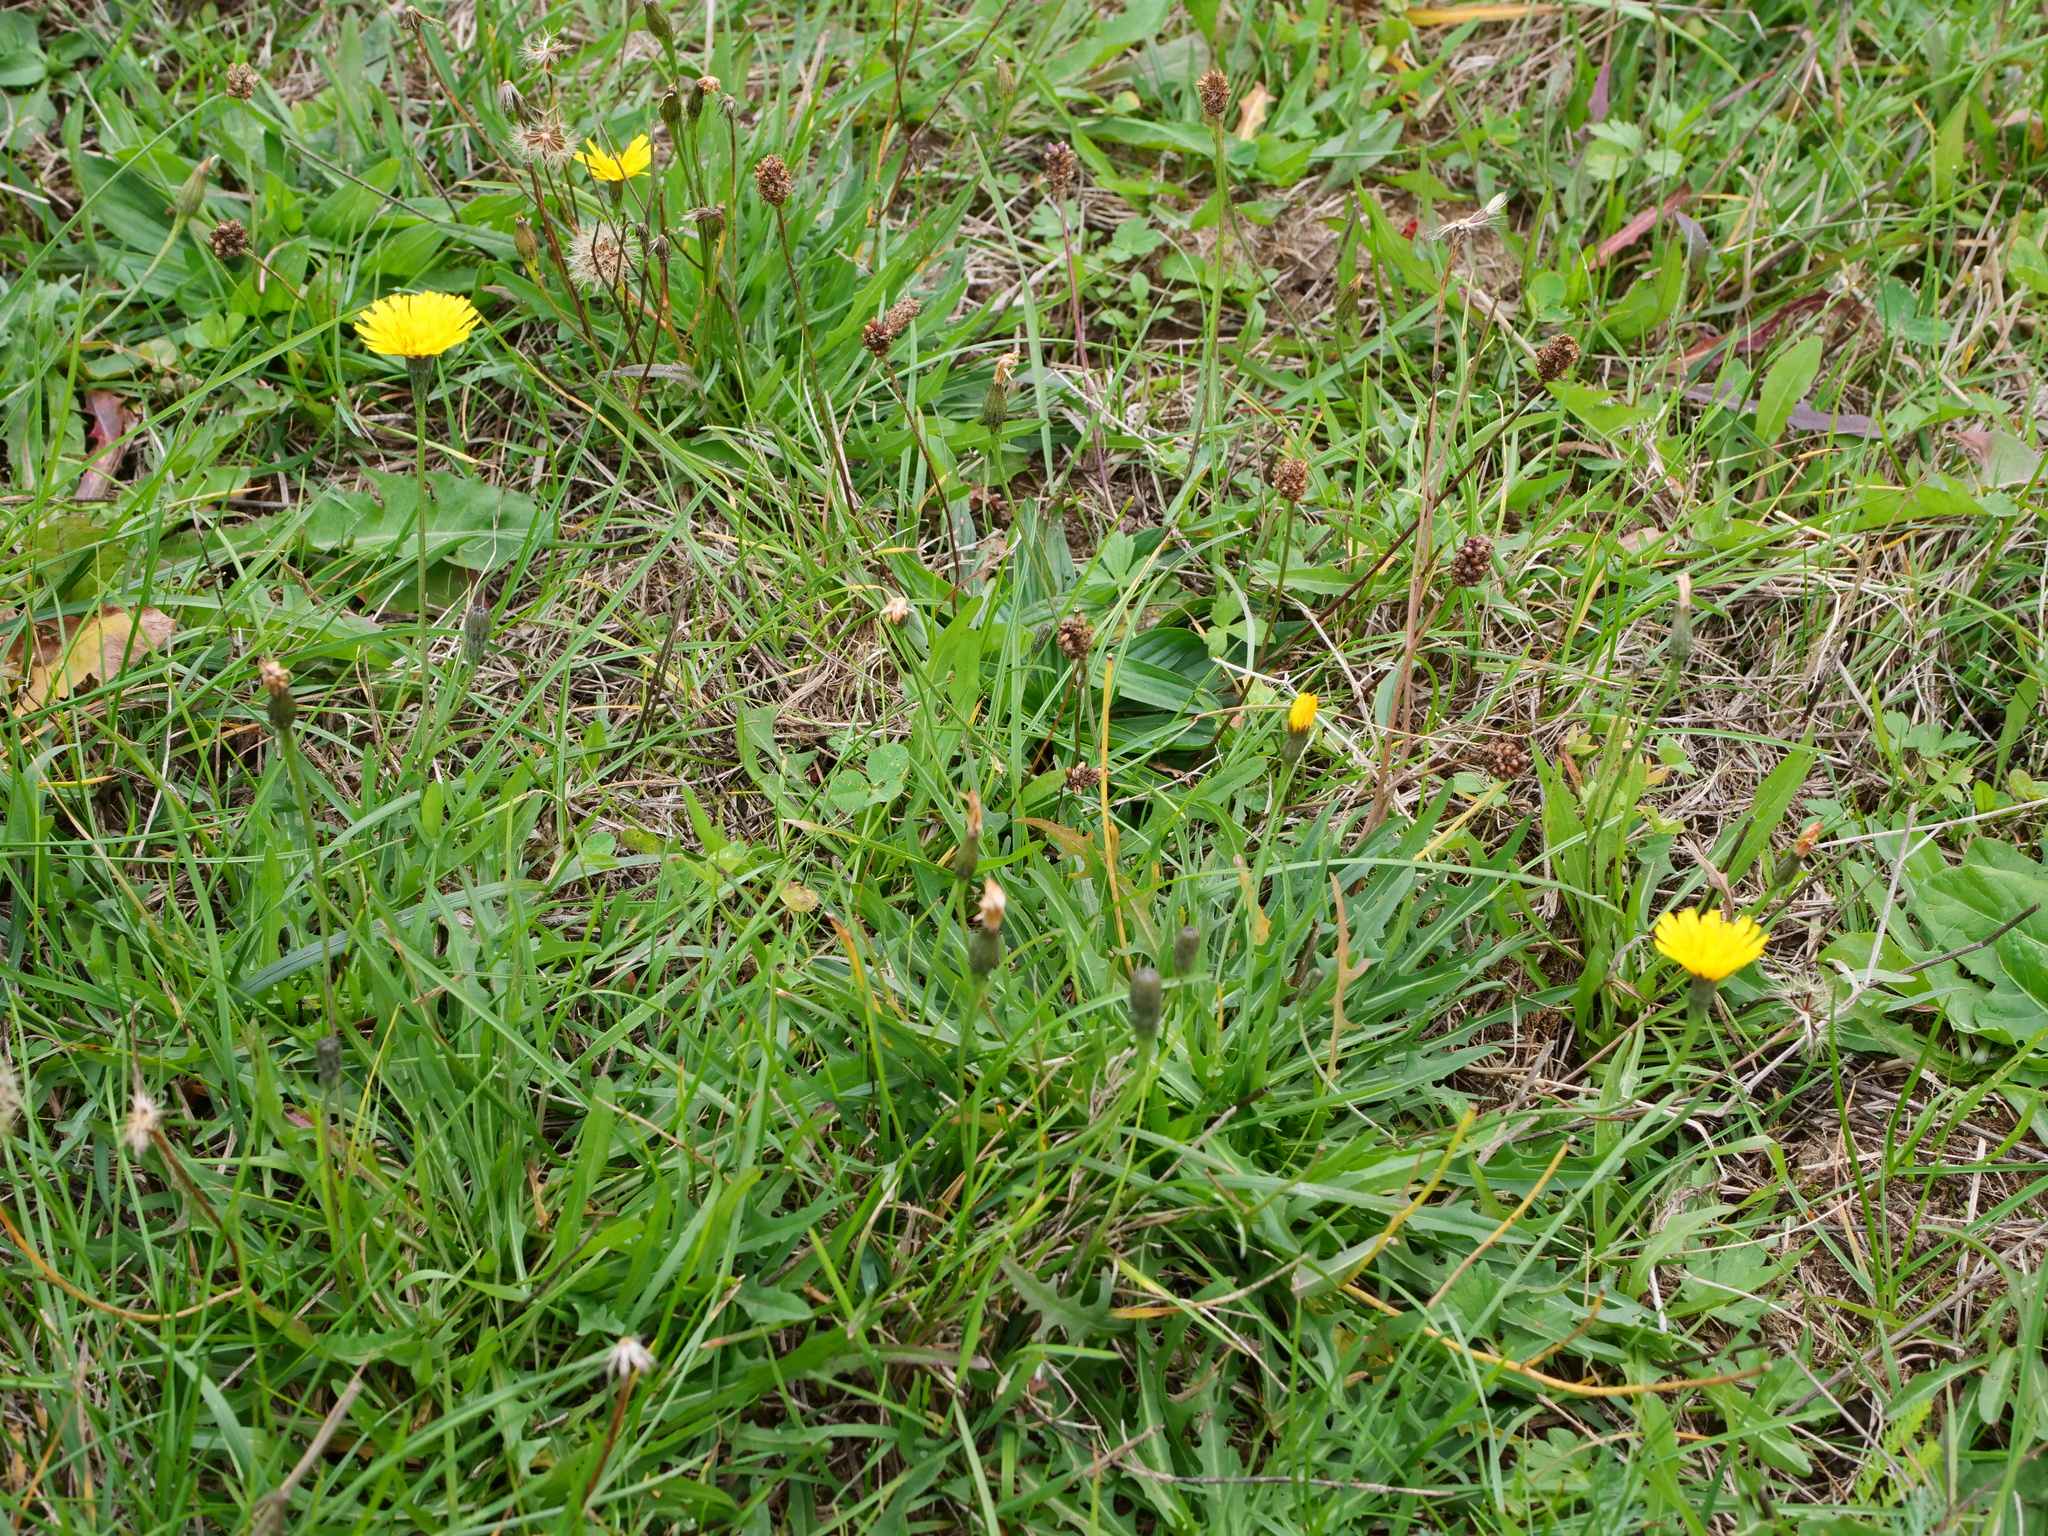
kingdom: Plantae
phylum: Tracheophyta
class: Magnoliopsida
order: Asterales
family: Asteraceae
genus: Scorzoneroides
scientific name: Scorzoneroides autumnalis
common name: Autumn hawkbit
